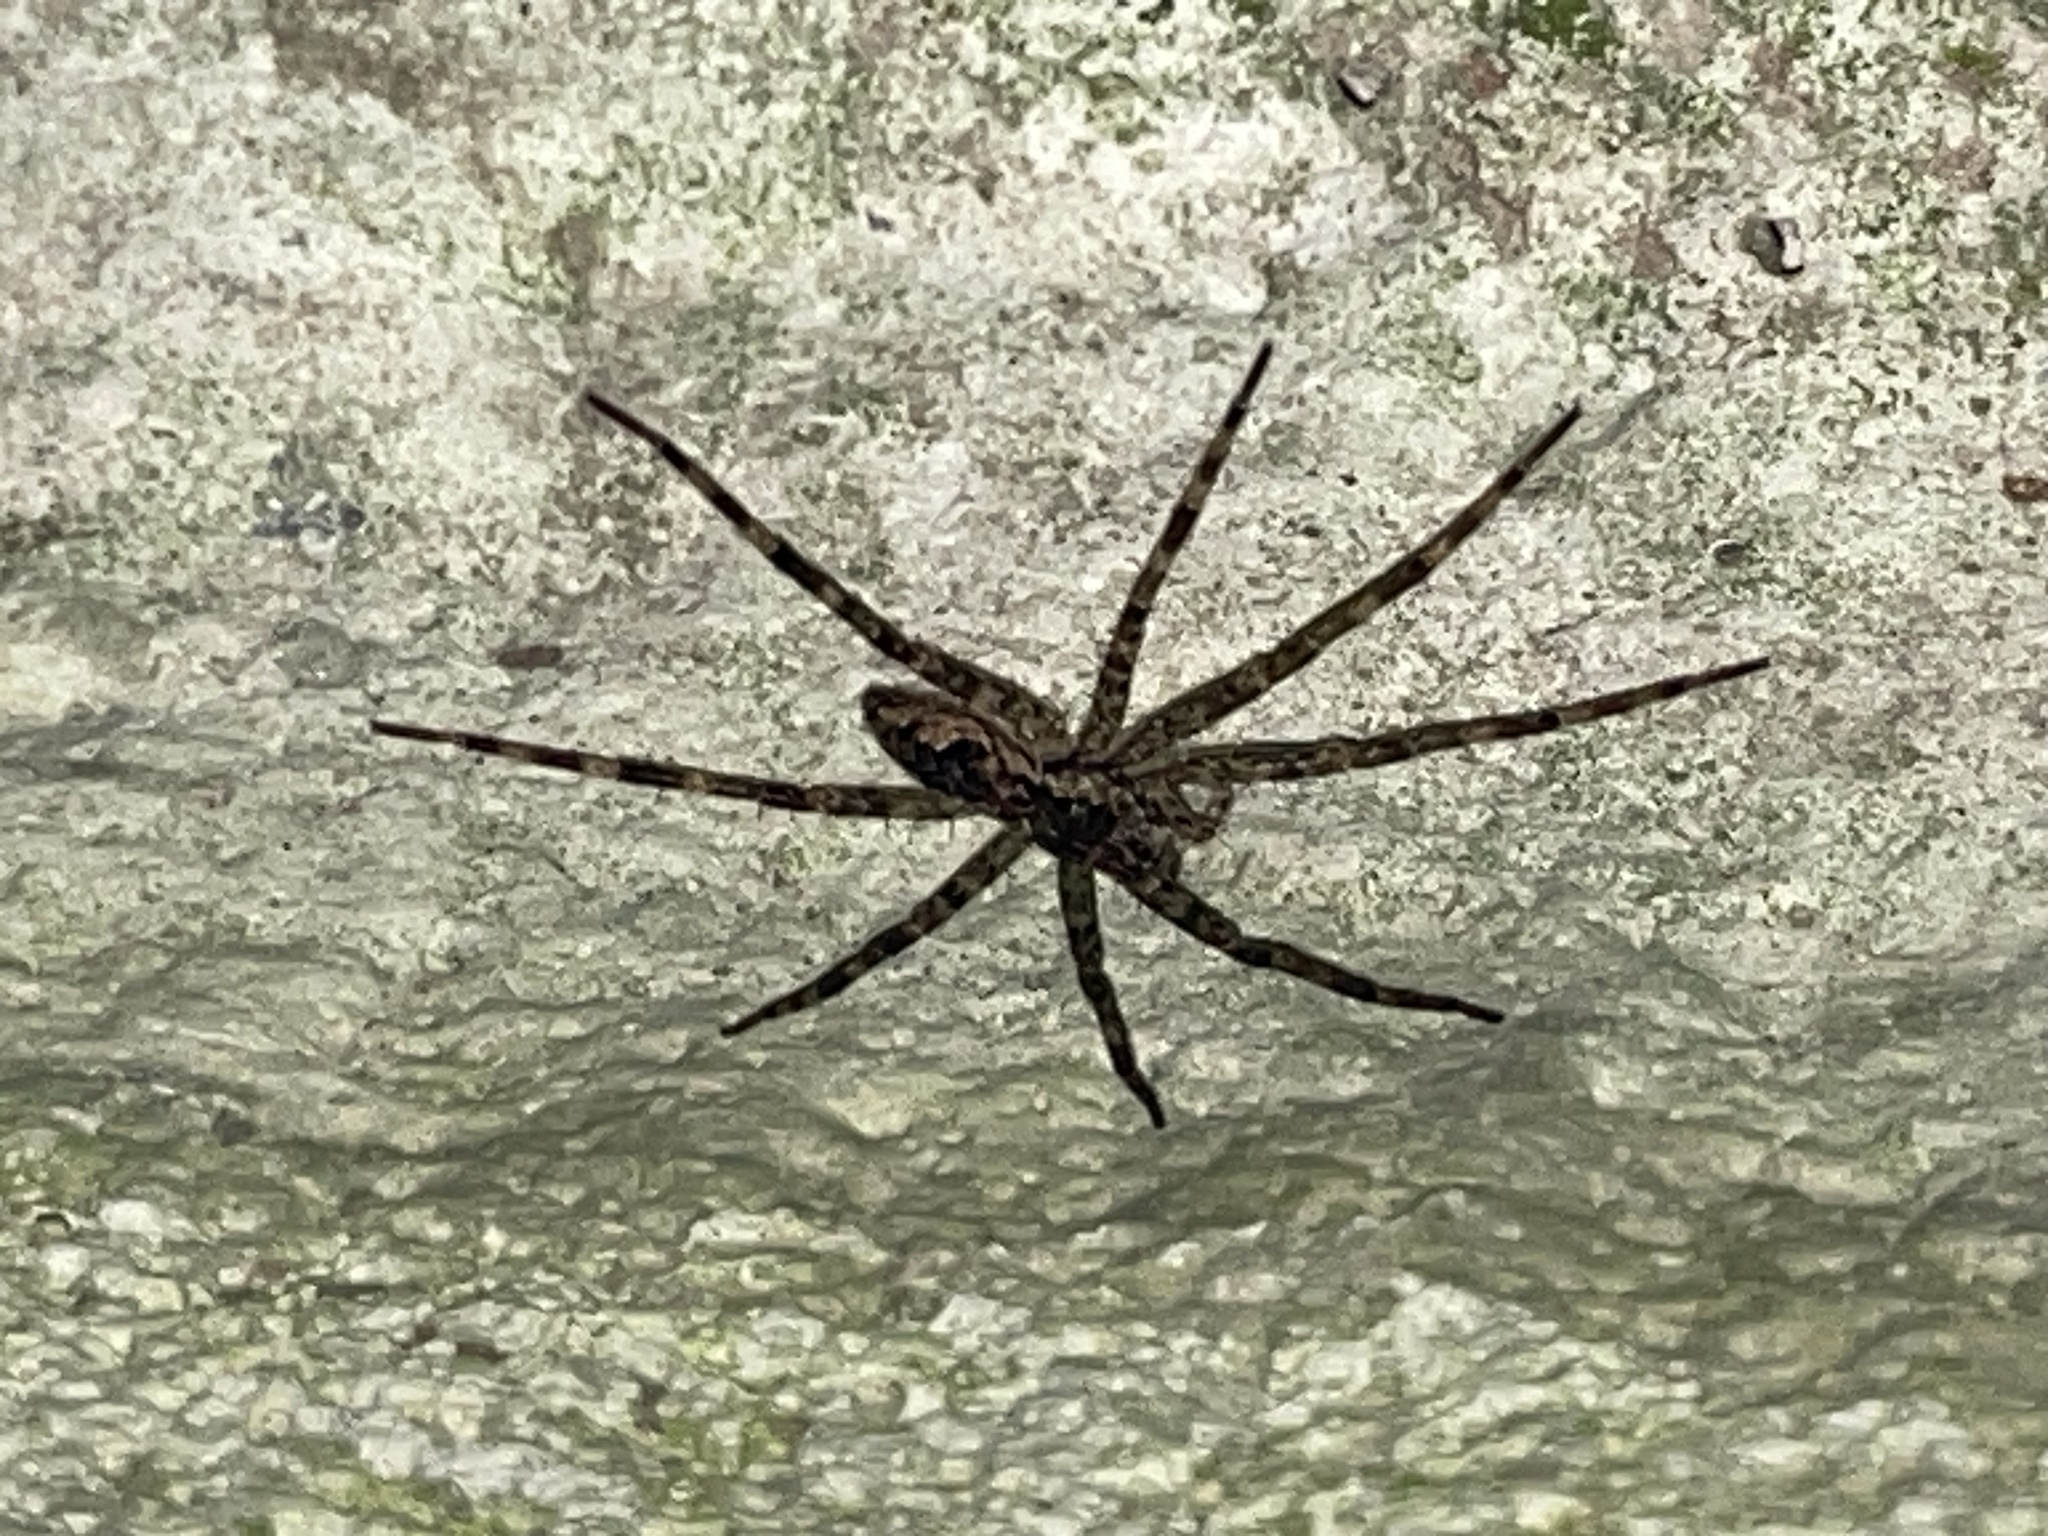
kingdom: Animalia
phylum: Arthropoda
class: Arachnida
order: Araneae
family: Pisauridae
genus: Dolomedes
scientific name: Dolomedes tenebrosus
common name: Dark fishing spider
